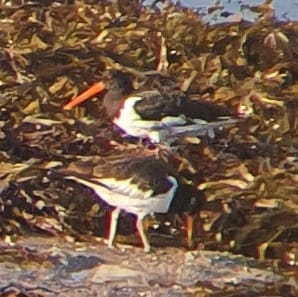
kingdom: Animalia
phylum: Chordata
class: Aves
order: Charadriiformes
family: Haematopodidae
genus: Haematopus
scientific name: Haematopus ostralegus
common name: Eurasian oystercatcher
